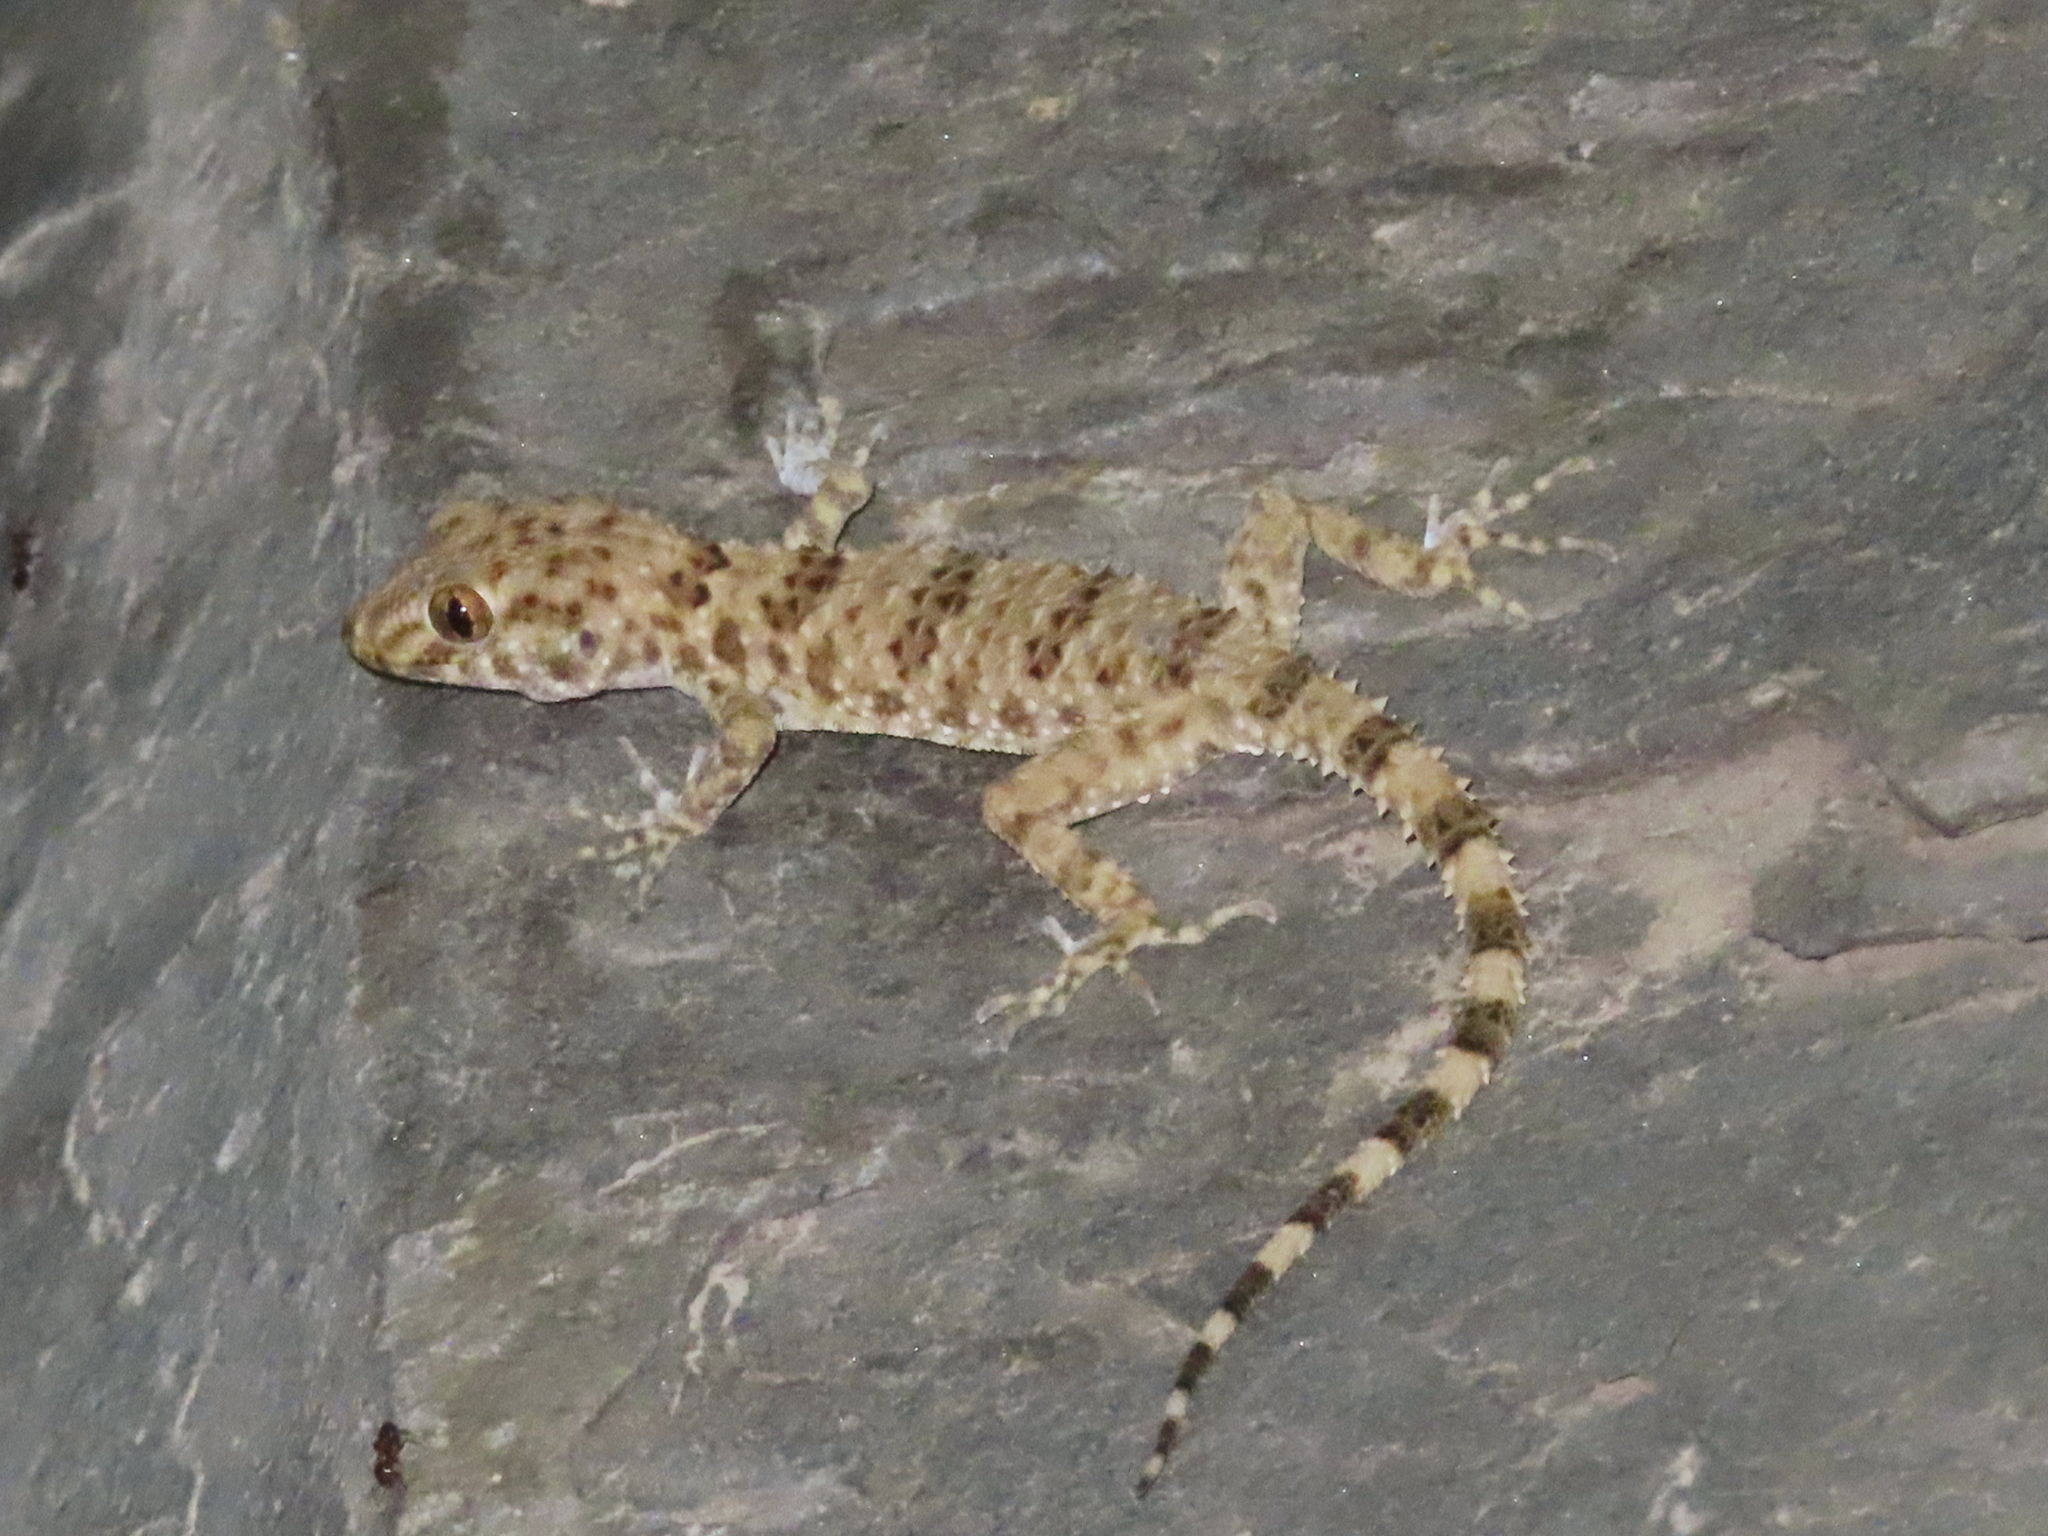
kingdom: Animalia
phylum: Chordata
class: Squamata
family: Gekkonidae
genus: Tenuidactylus
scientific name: Tenuidactylus caspius
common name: Caspian bent-toed gecko
